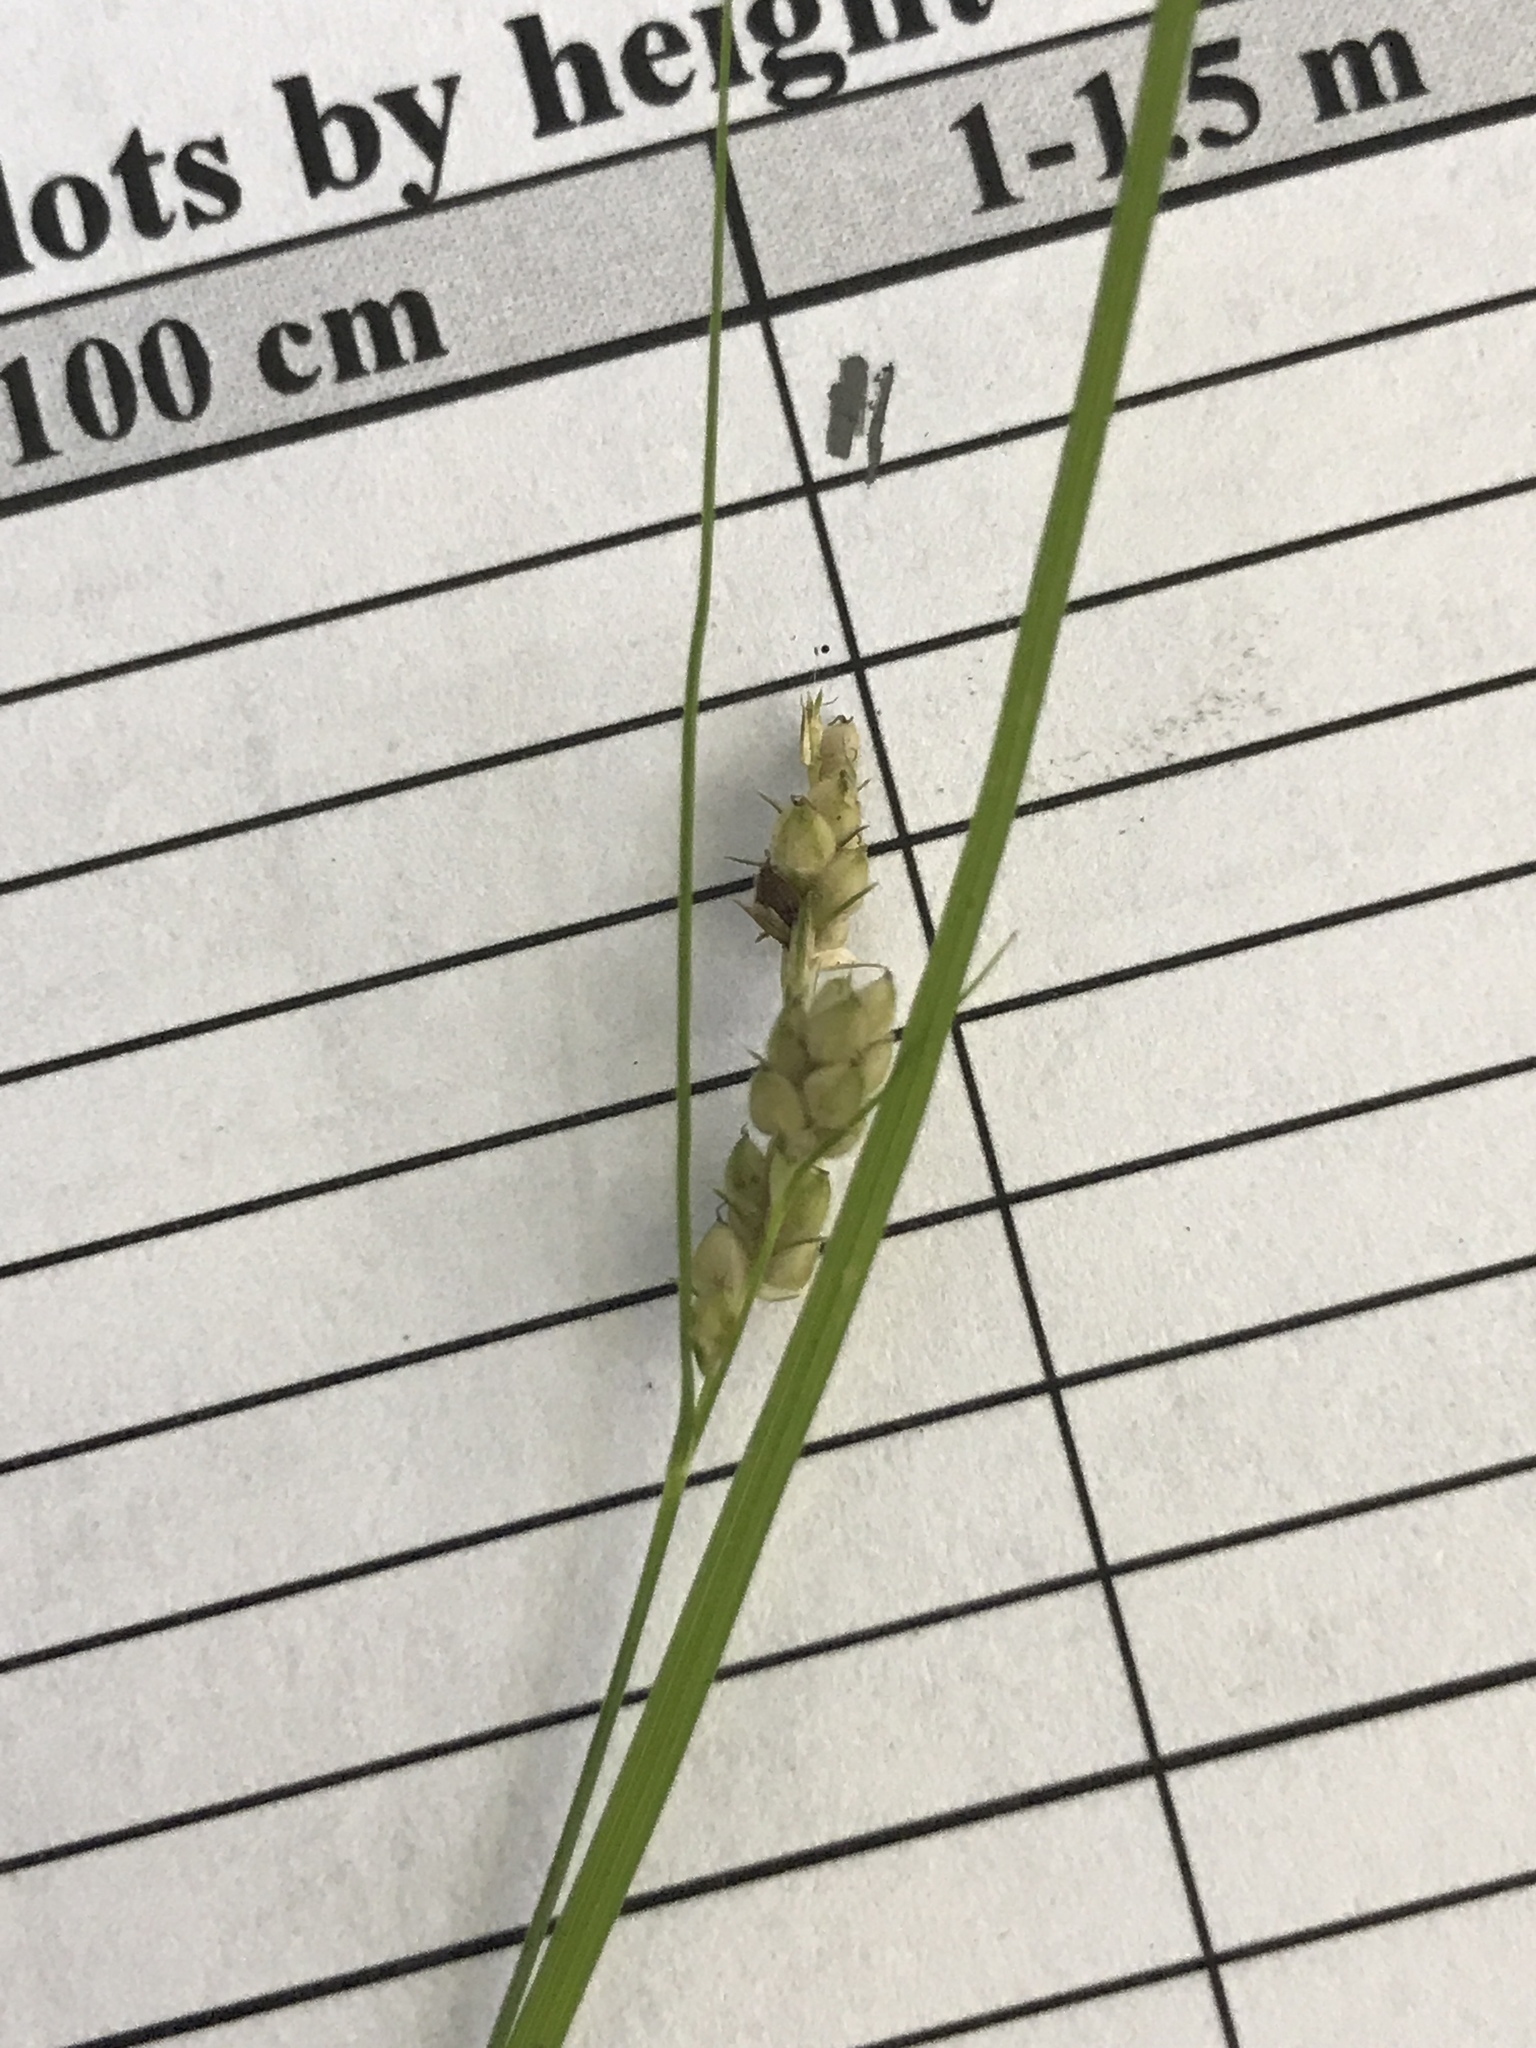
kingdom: Plantae
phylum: Tracheophyta
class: Liliopsida
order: Poales
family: Cyperaceae
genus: Carex
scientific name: Carex swanii
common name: Downy green sedge
